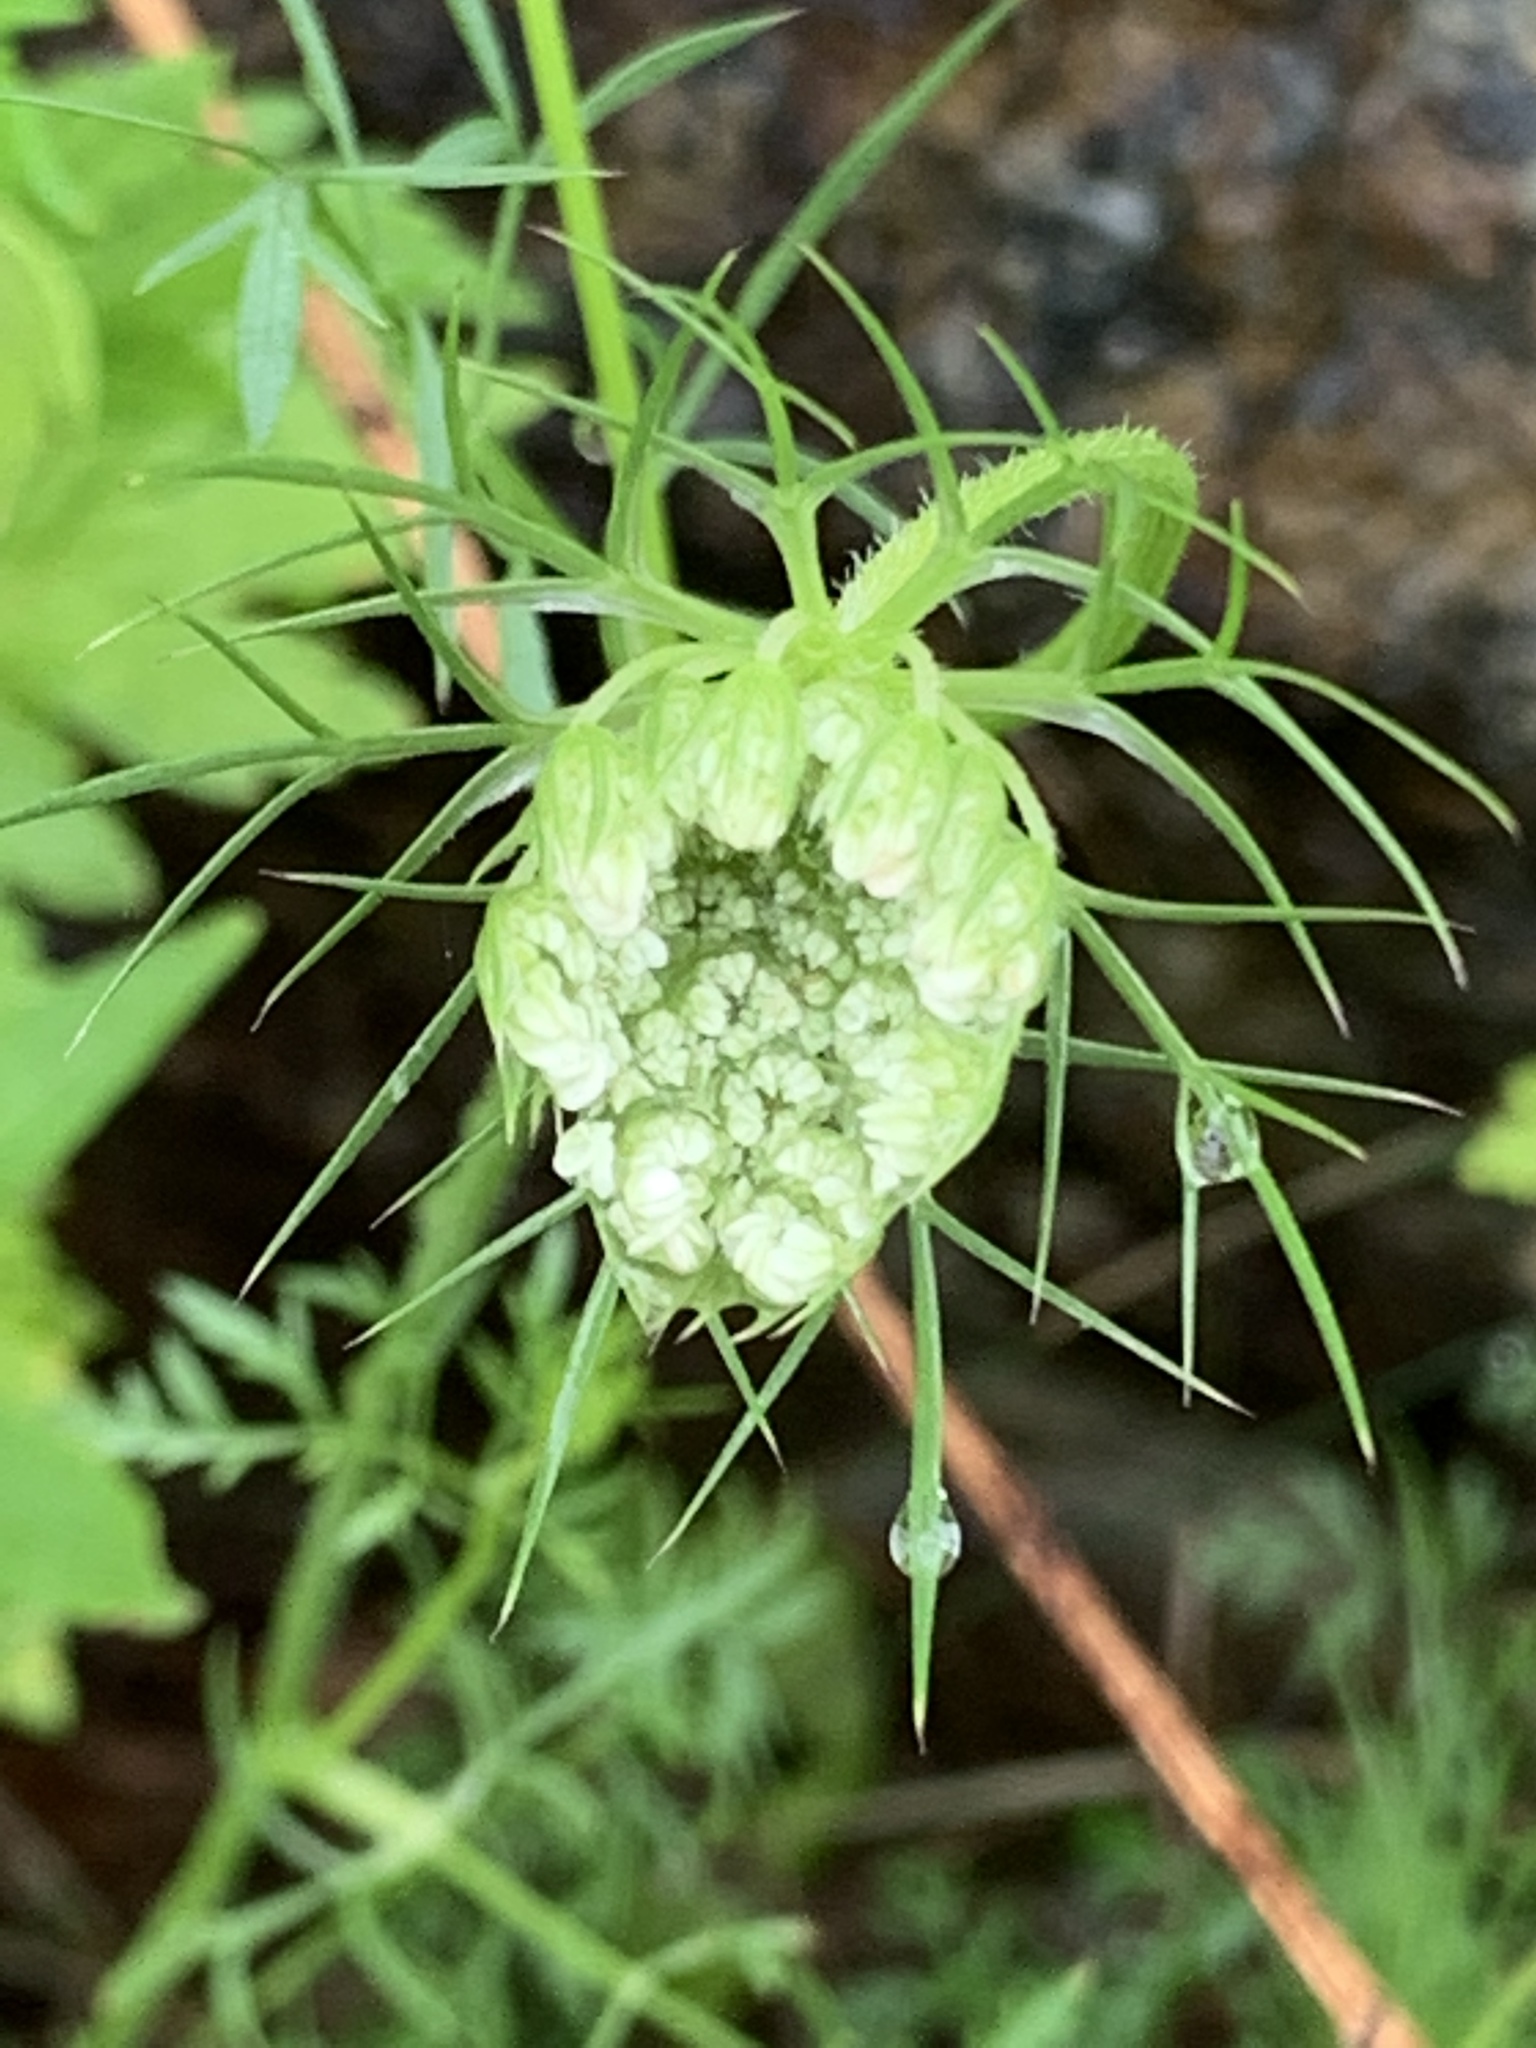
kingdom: Plantae
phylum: Tracheophyta
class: Magnoliopsida
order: Apiales
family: Apiaceae
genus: Daucus
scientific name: Daucus carota
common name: Wild carrot
